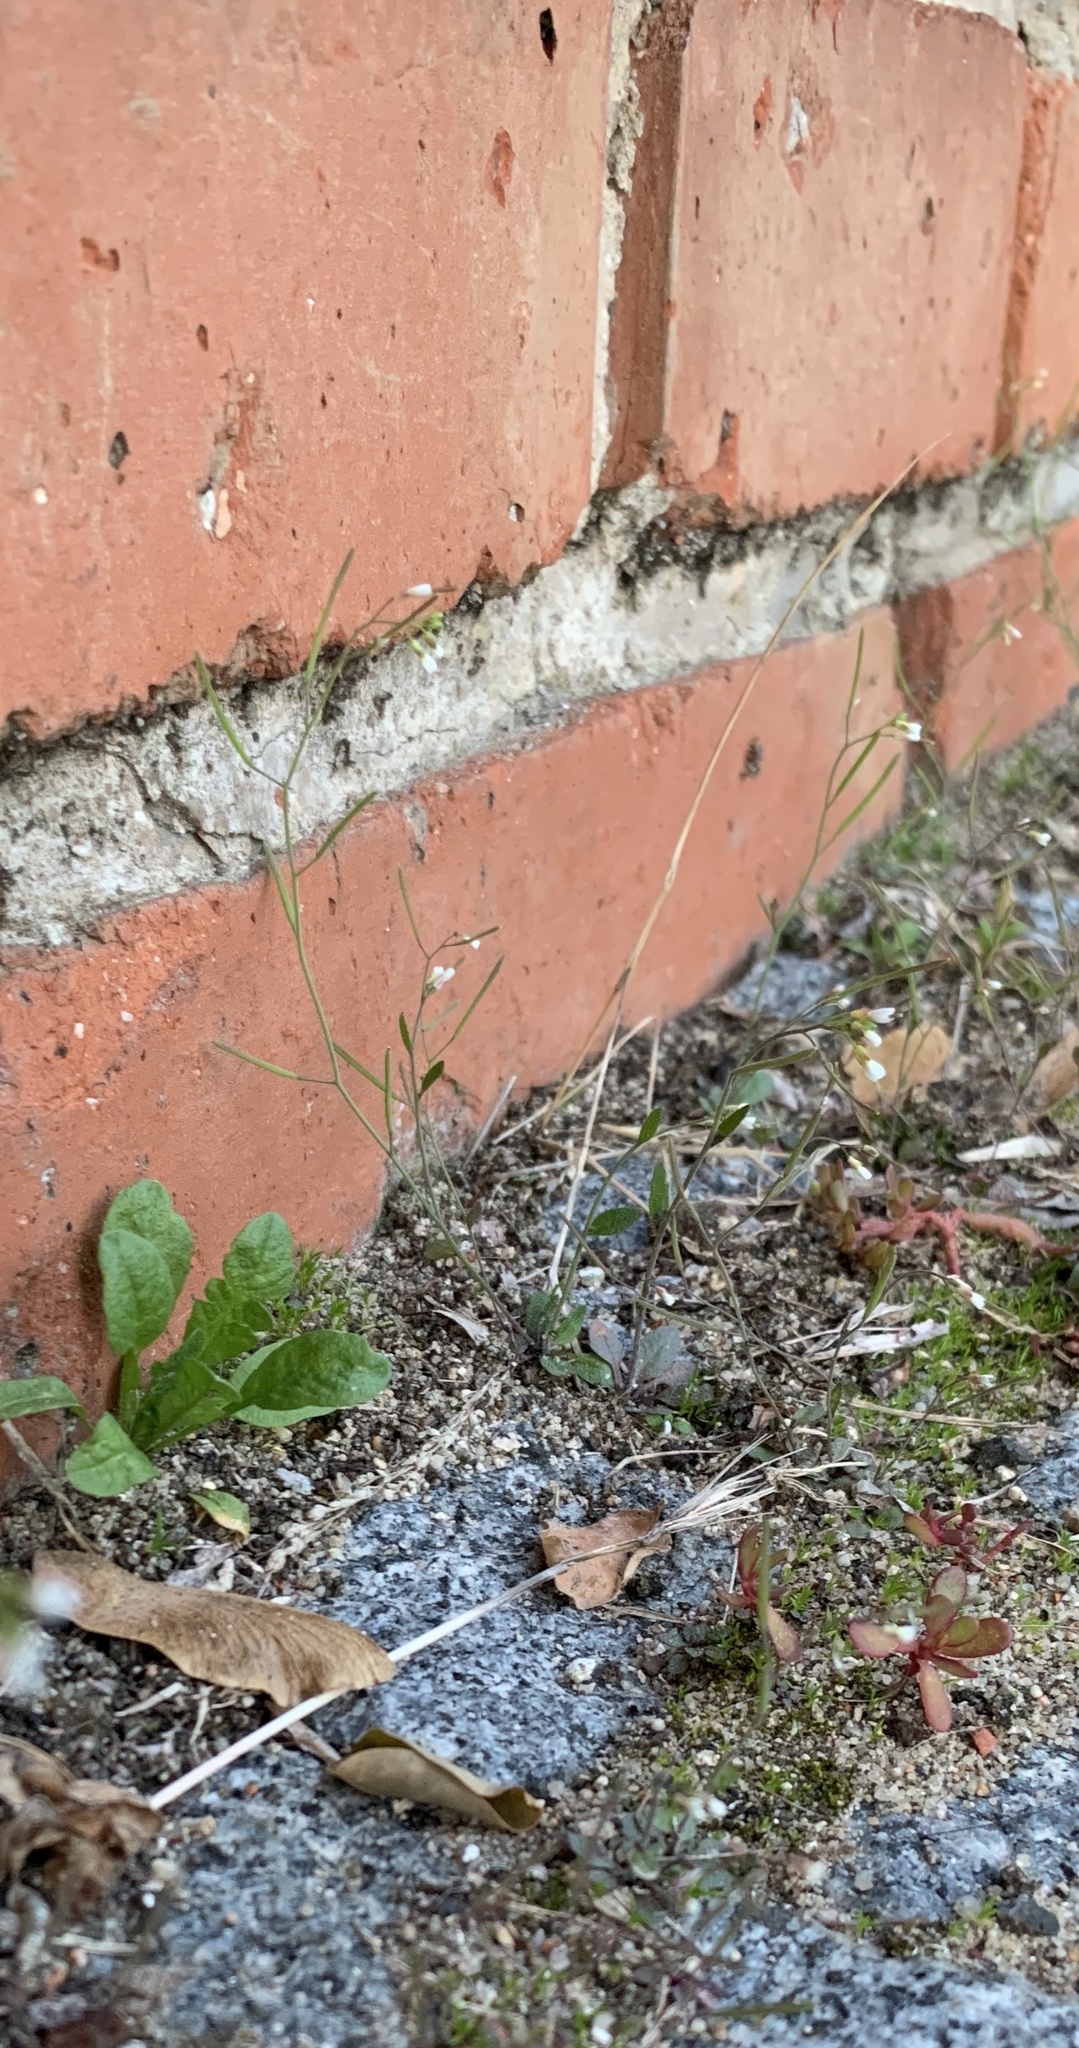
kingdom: Plantae
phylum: Tracheophyta
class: Magnoliopsida
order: Brassicales
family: Brassicaceae
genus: Arabidopsis
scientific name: Arabidopsis thaliana
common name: Thale cress
